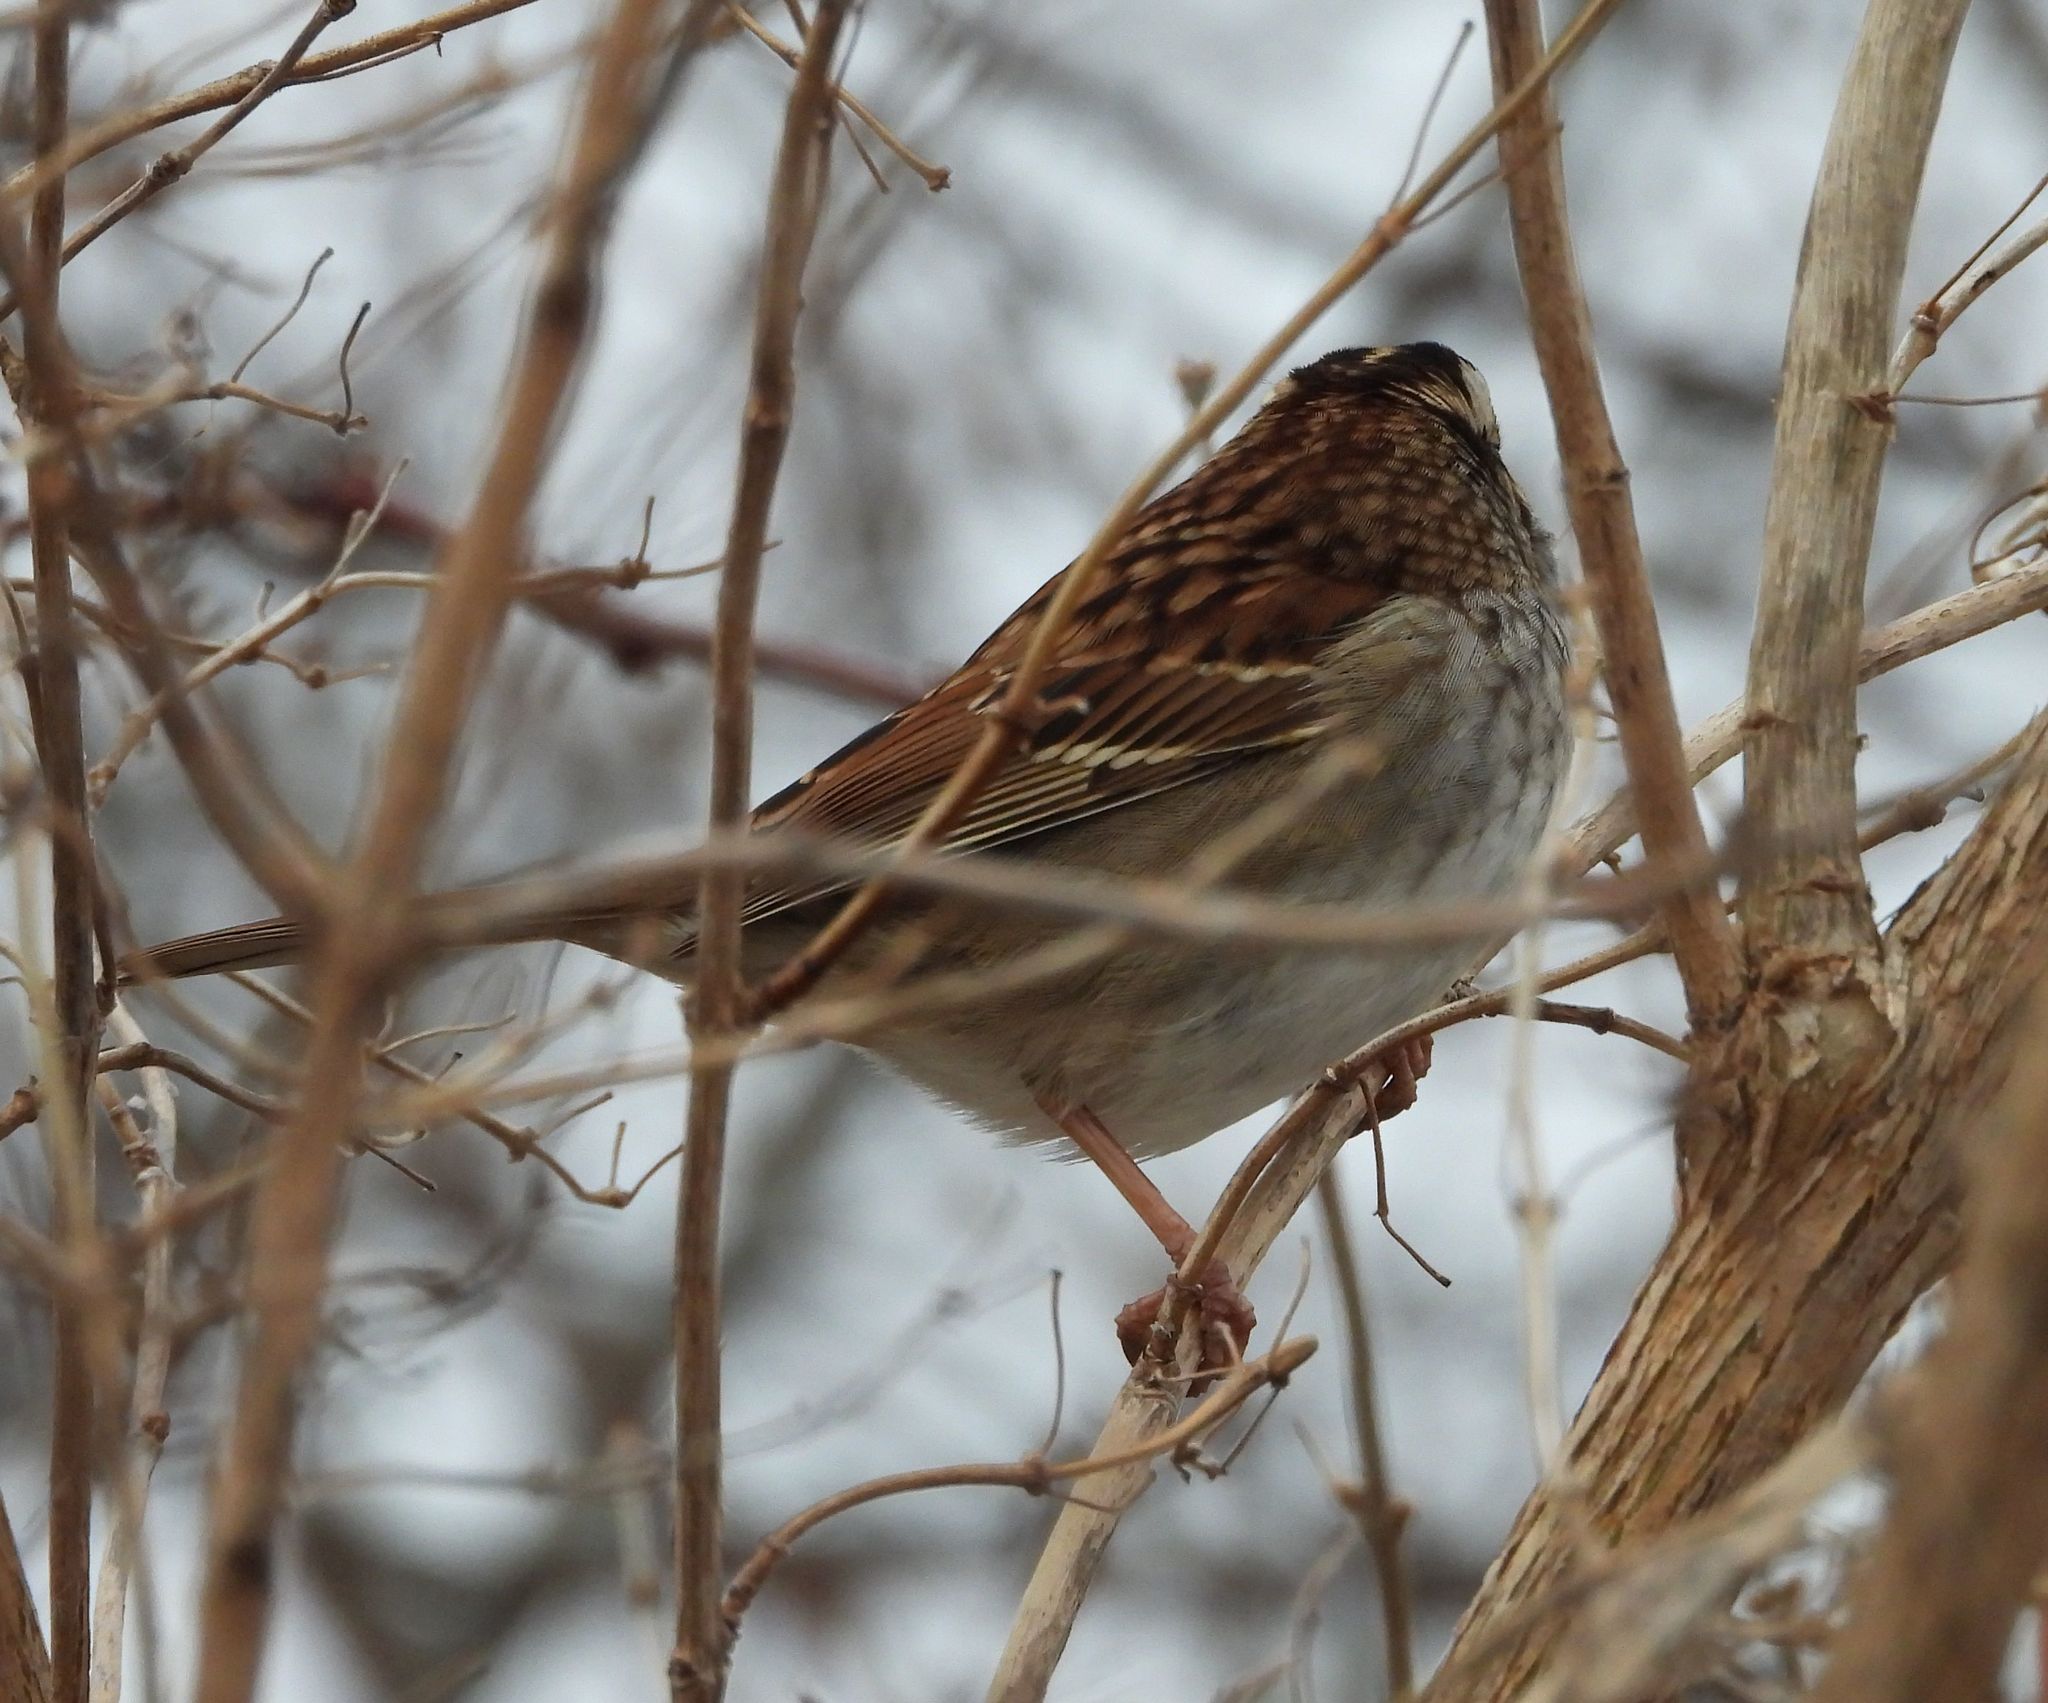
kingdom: Animalia
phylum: Chordata
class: Aves
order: Passeriformes
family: Passerellidae
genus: Zonotrichia
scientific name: Zonotrichia albicollis
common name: White-throated sparrow
